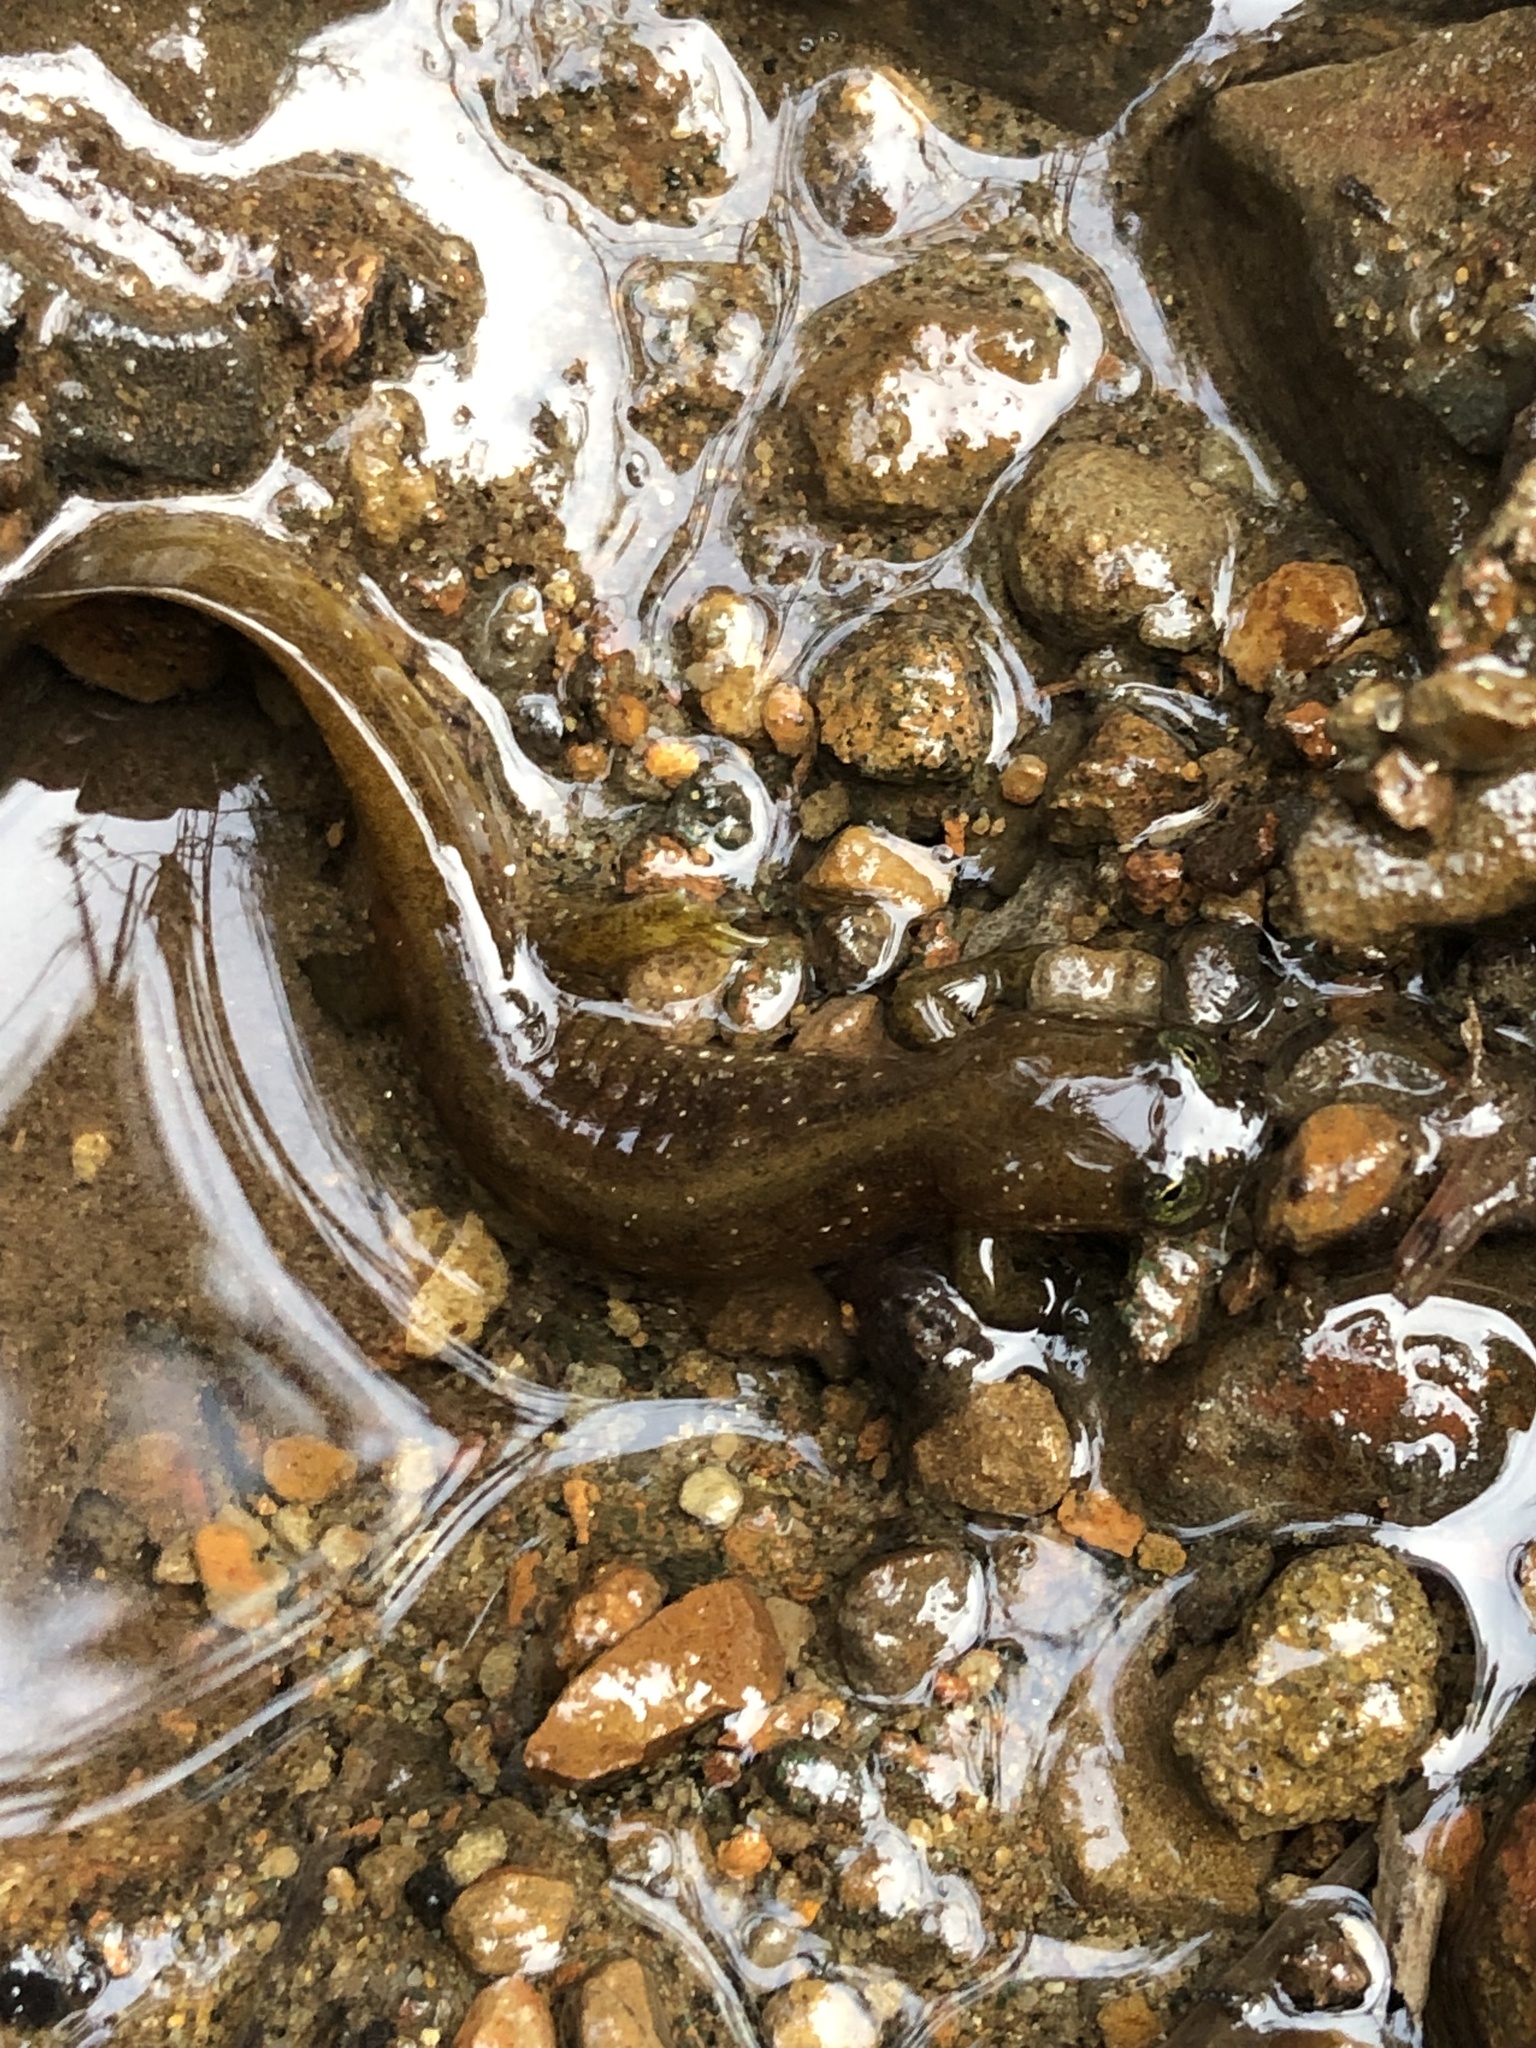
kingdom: Animalia
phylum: Chordata
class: Amphibia
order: Caudata
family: Rhyacotritonidae
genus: Rhyacotriton
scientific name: Rhyacotriton kezeri
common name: Columbia torrent salamander
